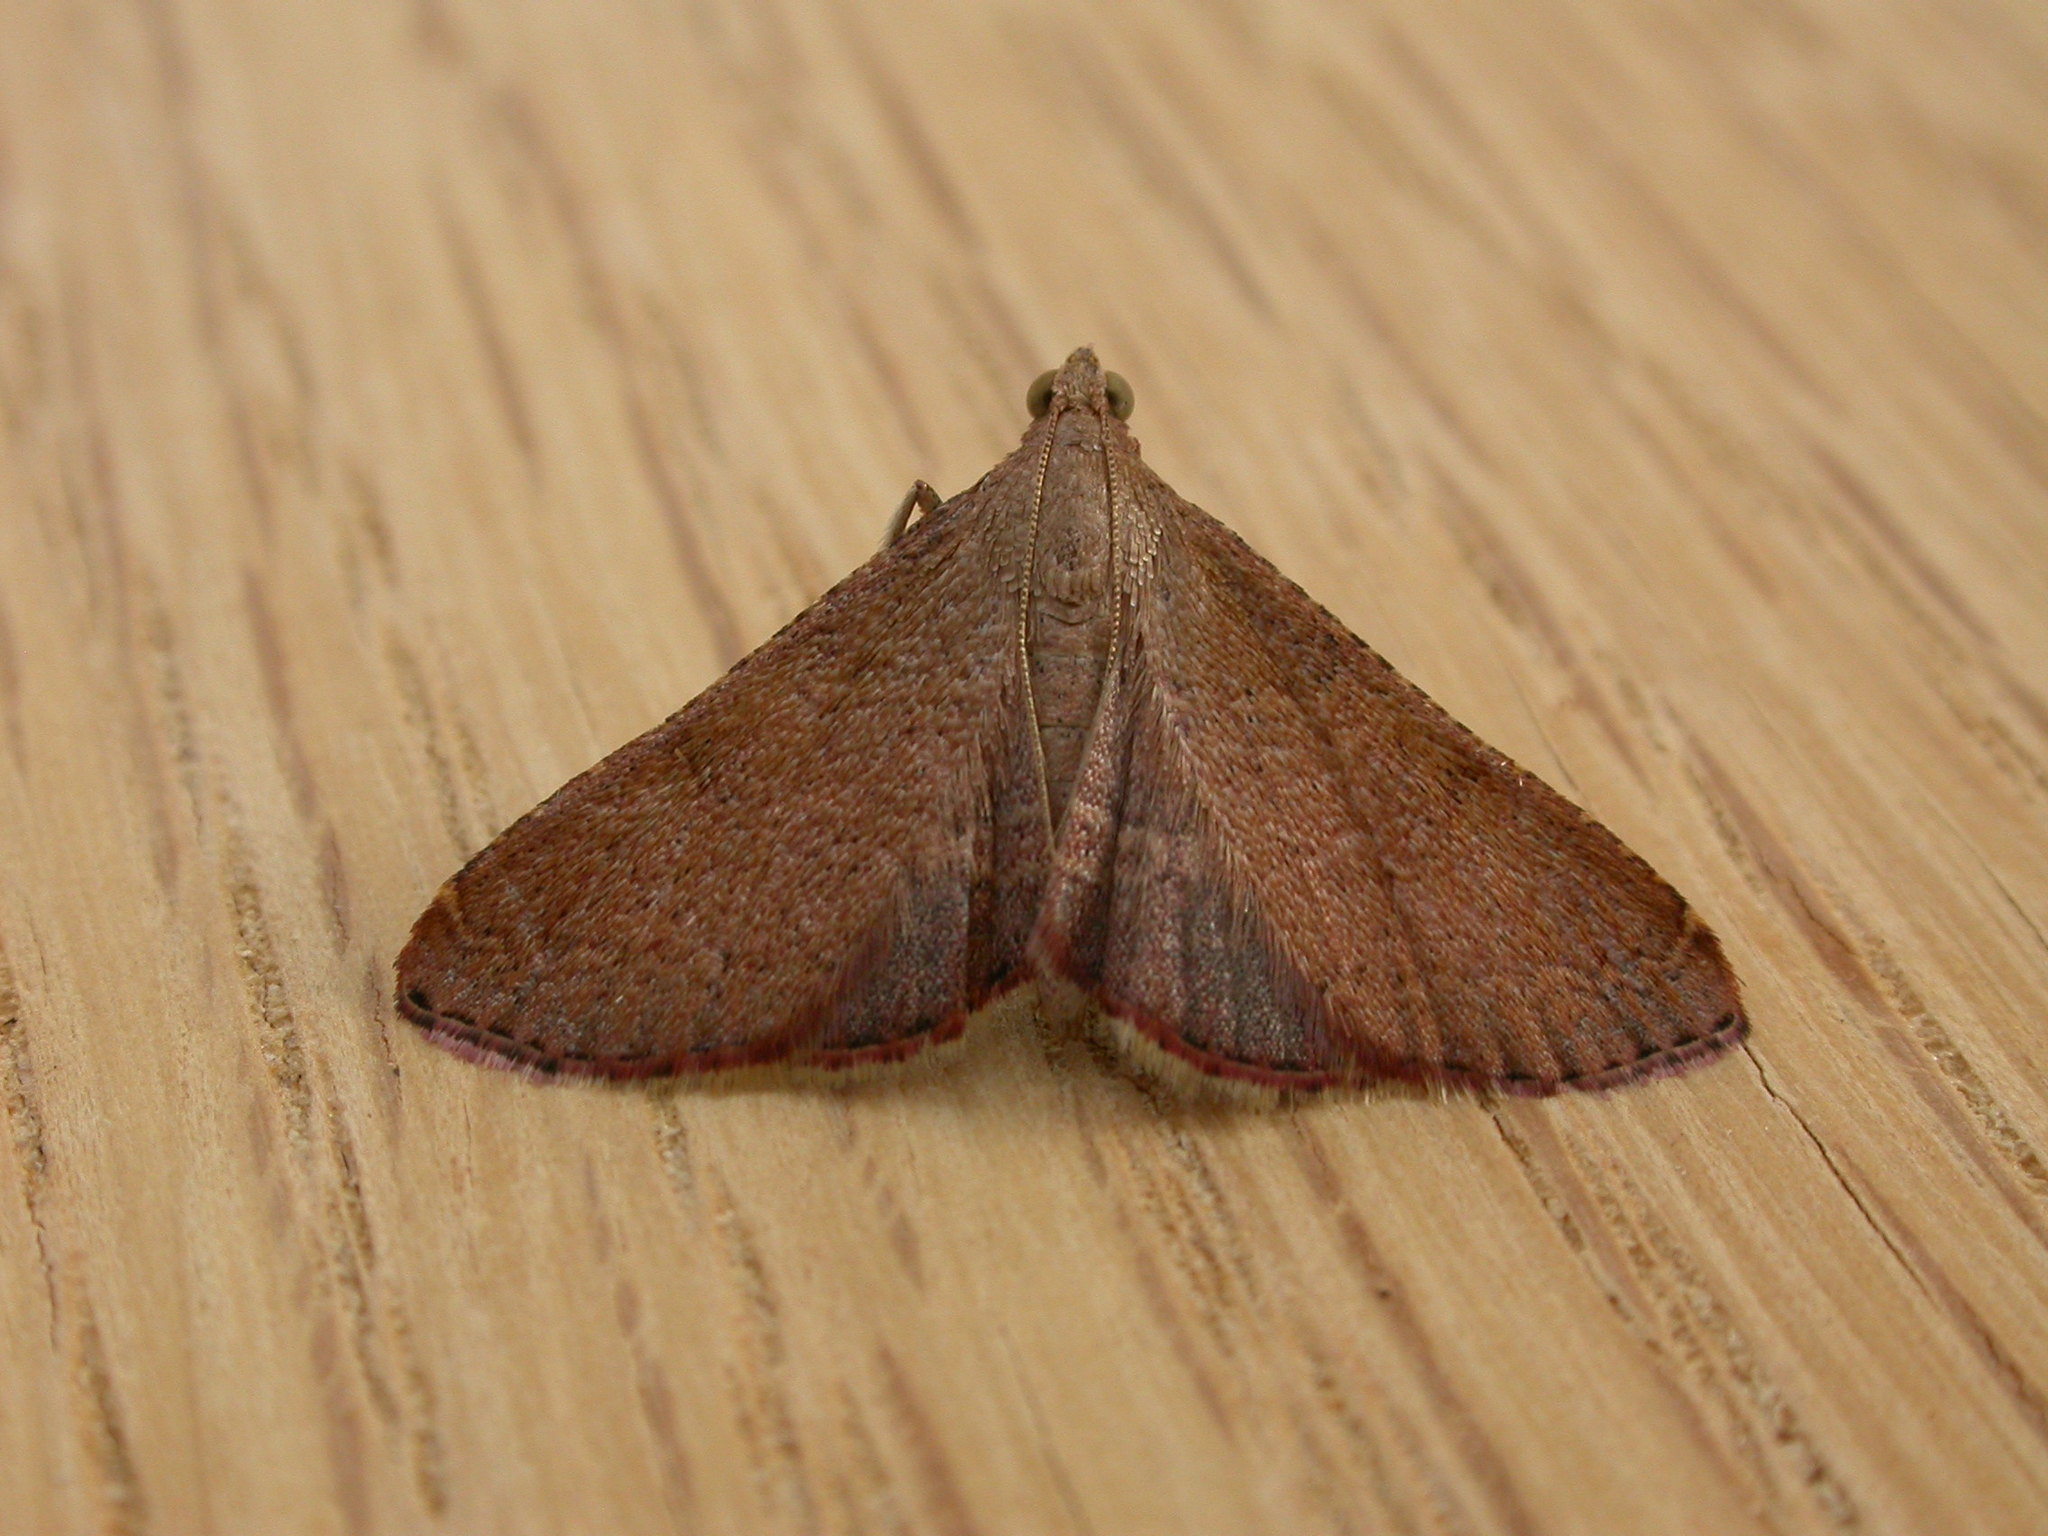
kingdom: Animalia
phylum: Arthropoda
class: Insecta
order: Lepidoptera
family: Pyralidae
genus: Endotricha
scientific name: Endotricha ignealis
